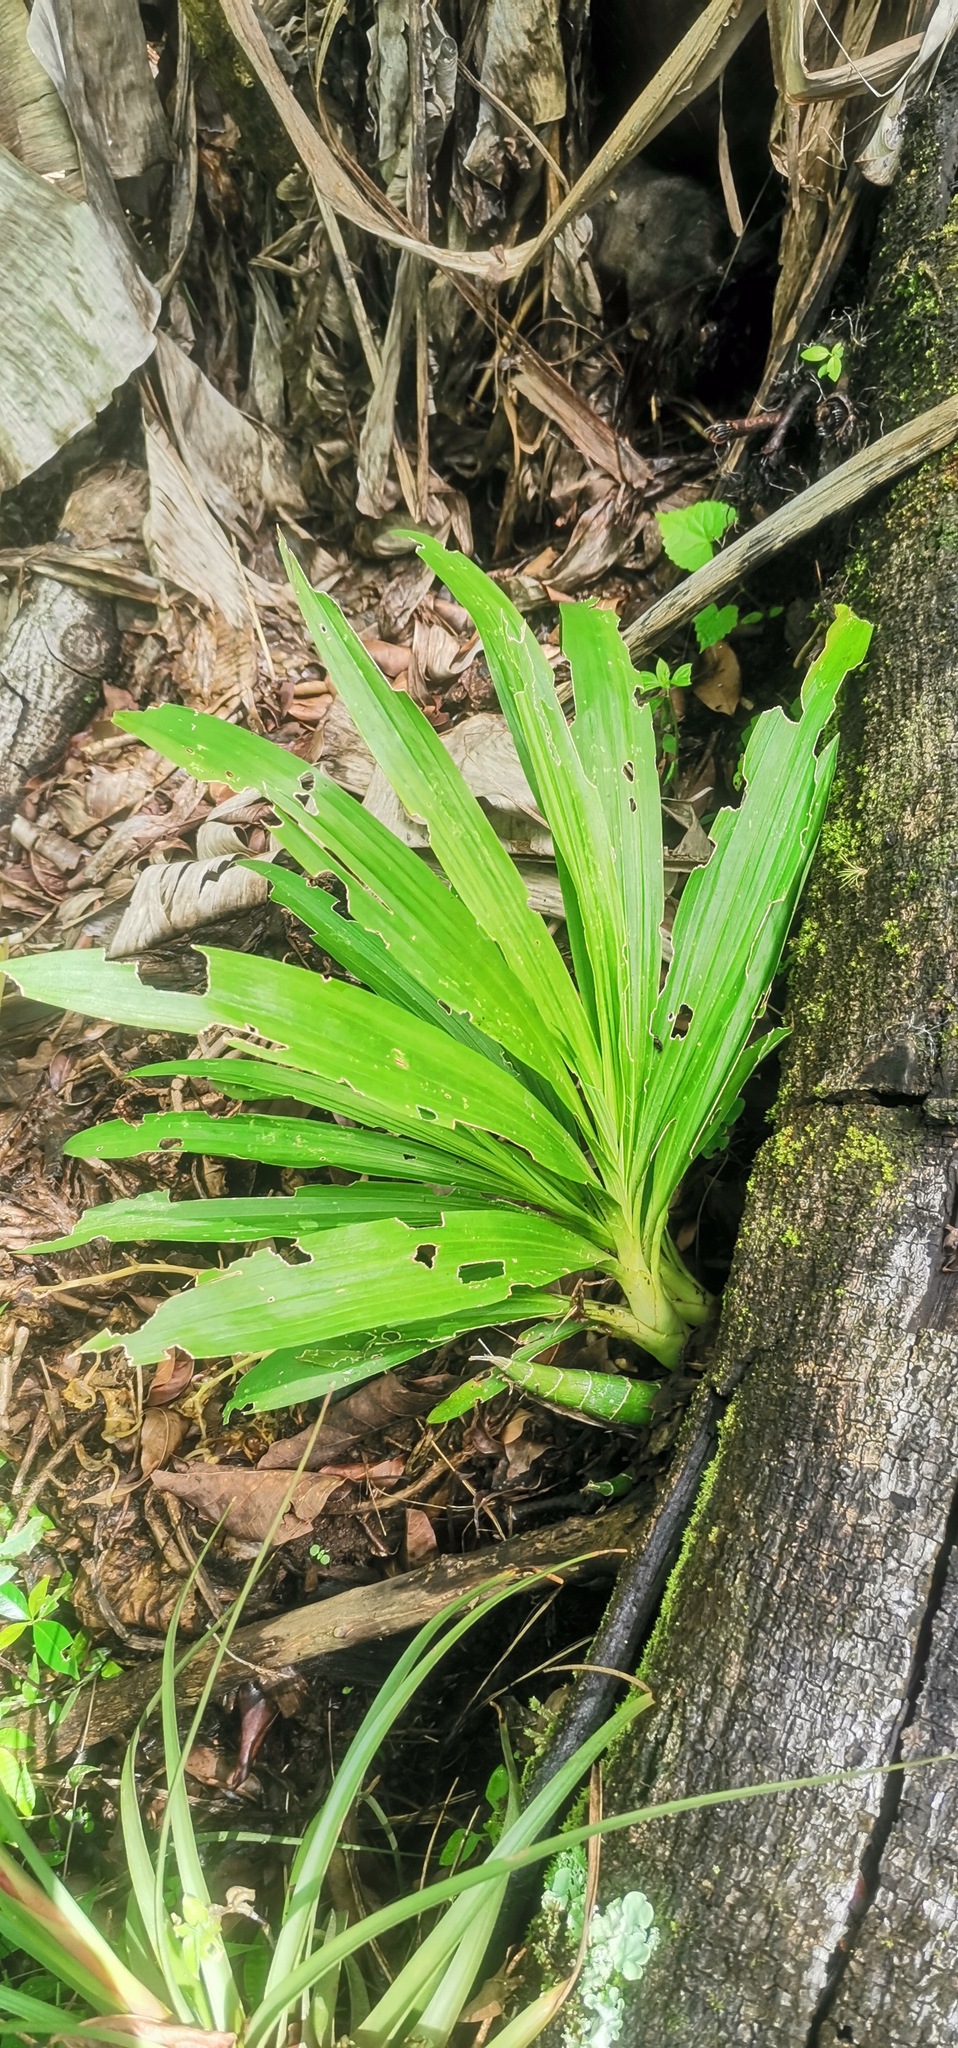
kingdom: Plantae
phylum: Tracheophyta
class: Liliopsida
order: Asparagales
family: Orchidaceae
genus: Mormodes
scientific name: Mormodes maculata
